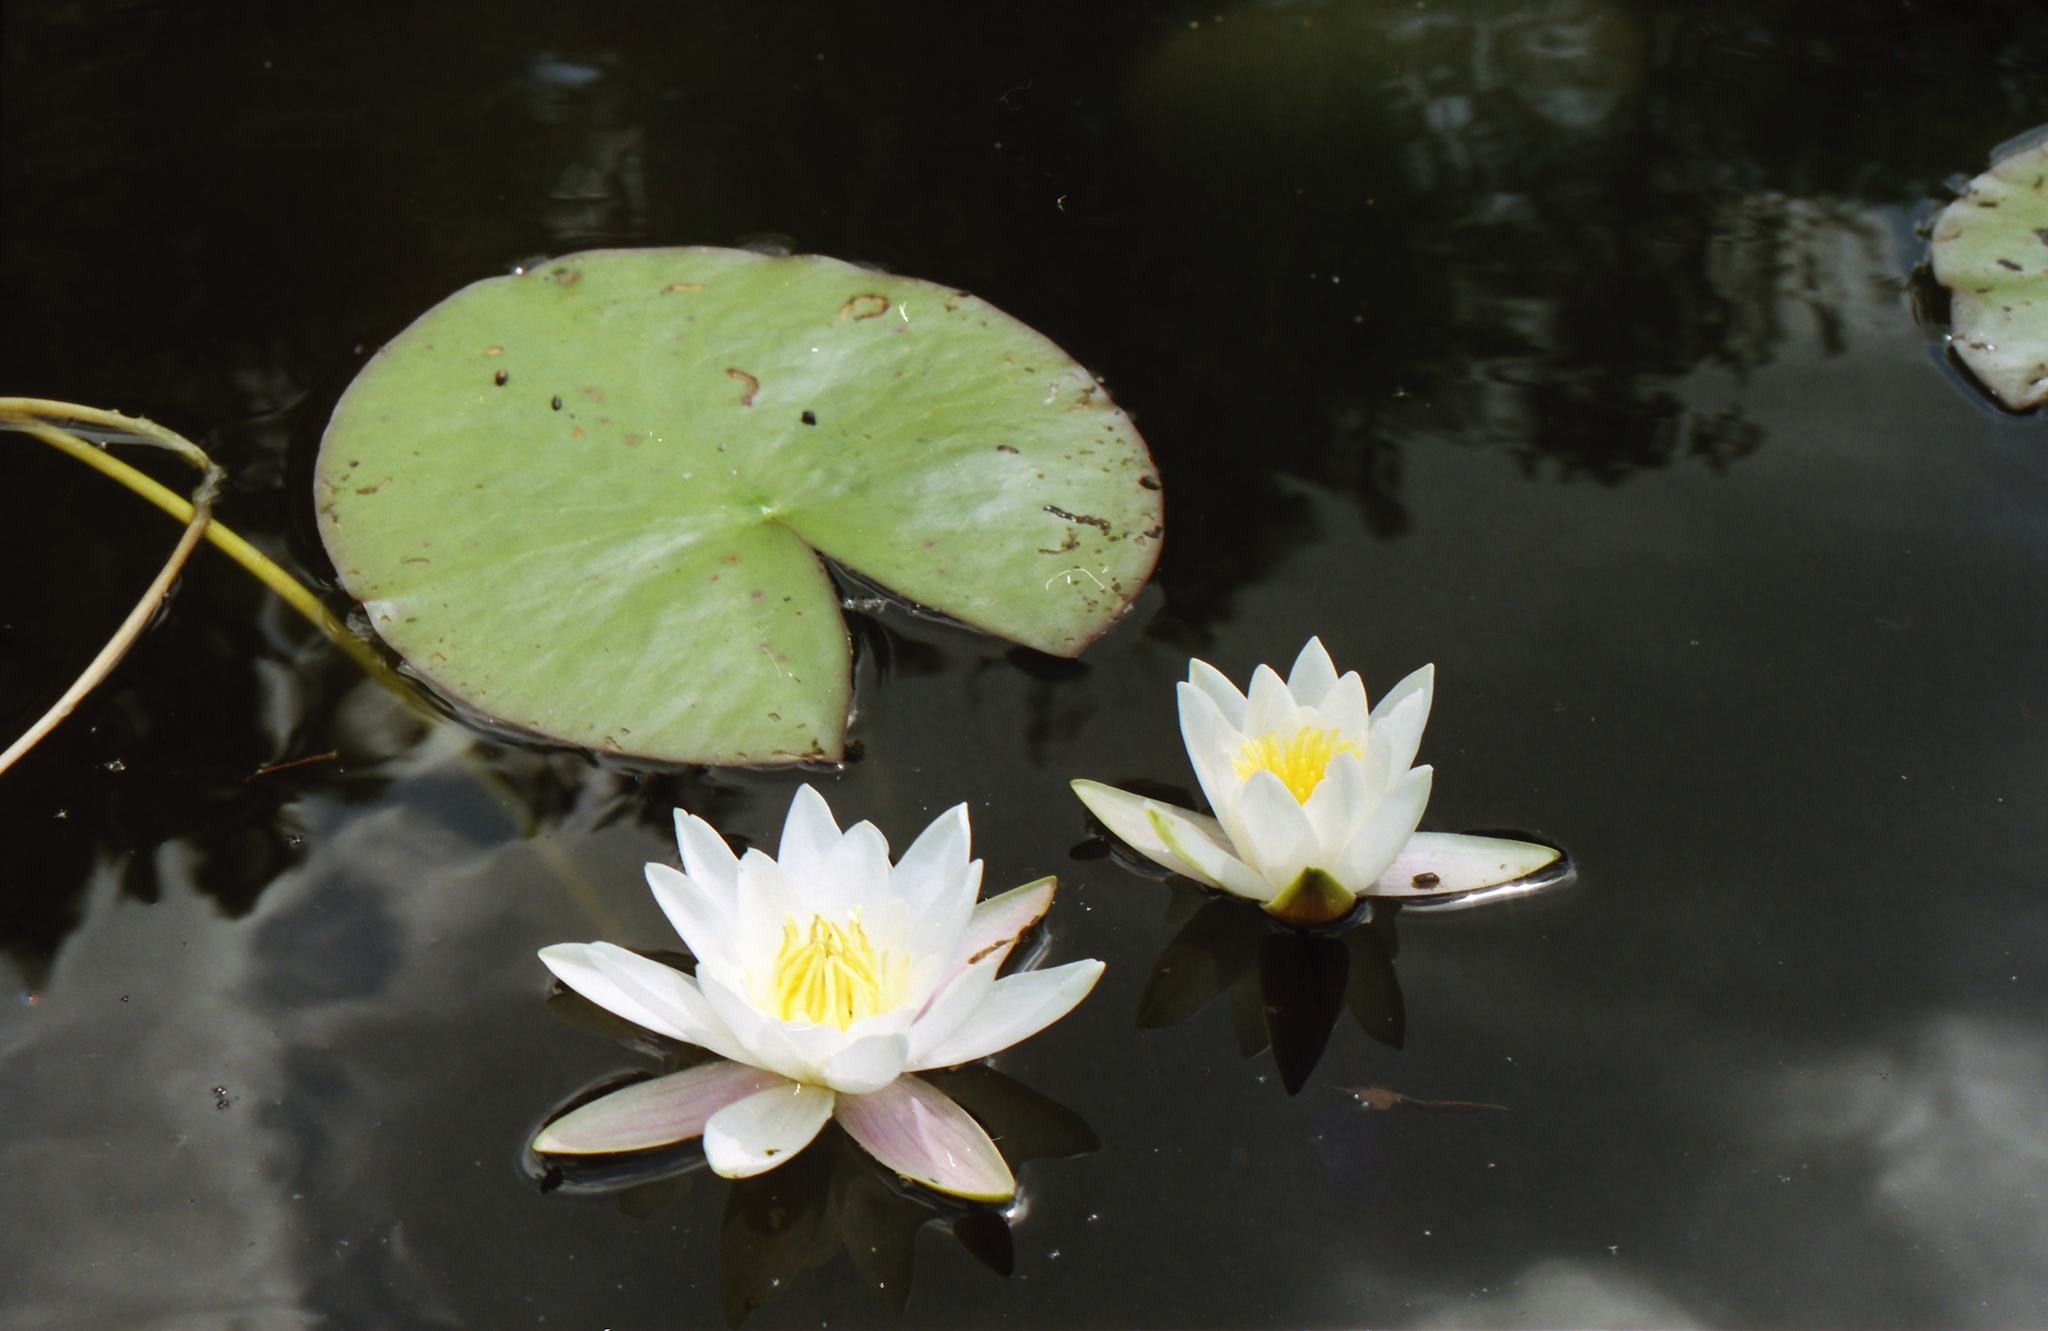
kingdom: Plantae
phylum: Tracheophyta
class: Magnoliopsida
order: Nymphaeales
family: Nymphaeaceae
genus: Nymphaea
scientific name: Nymphaea candida
